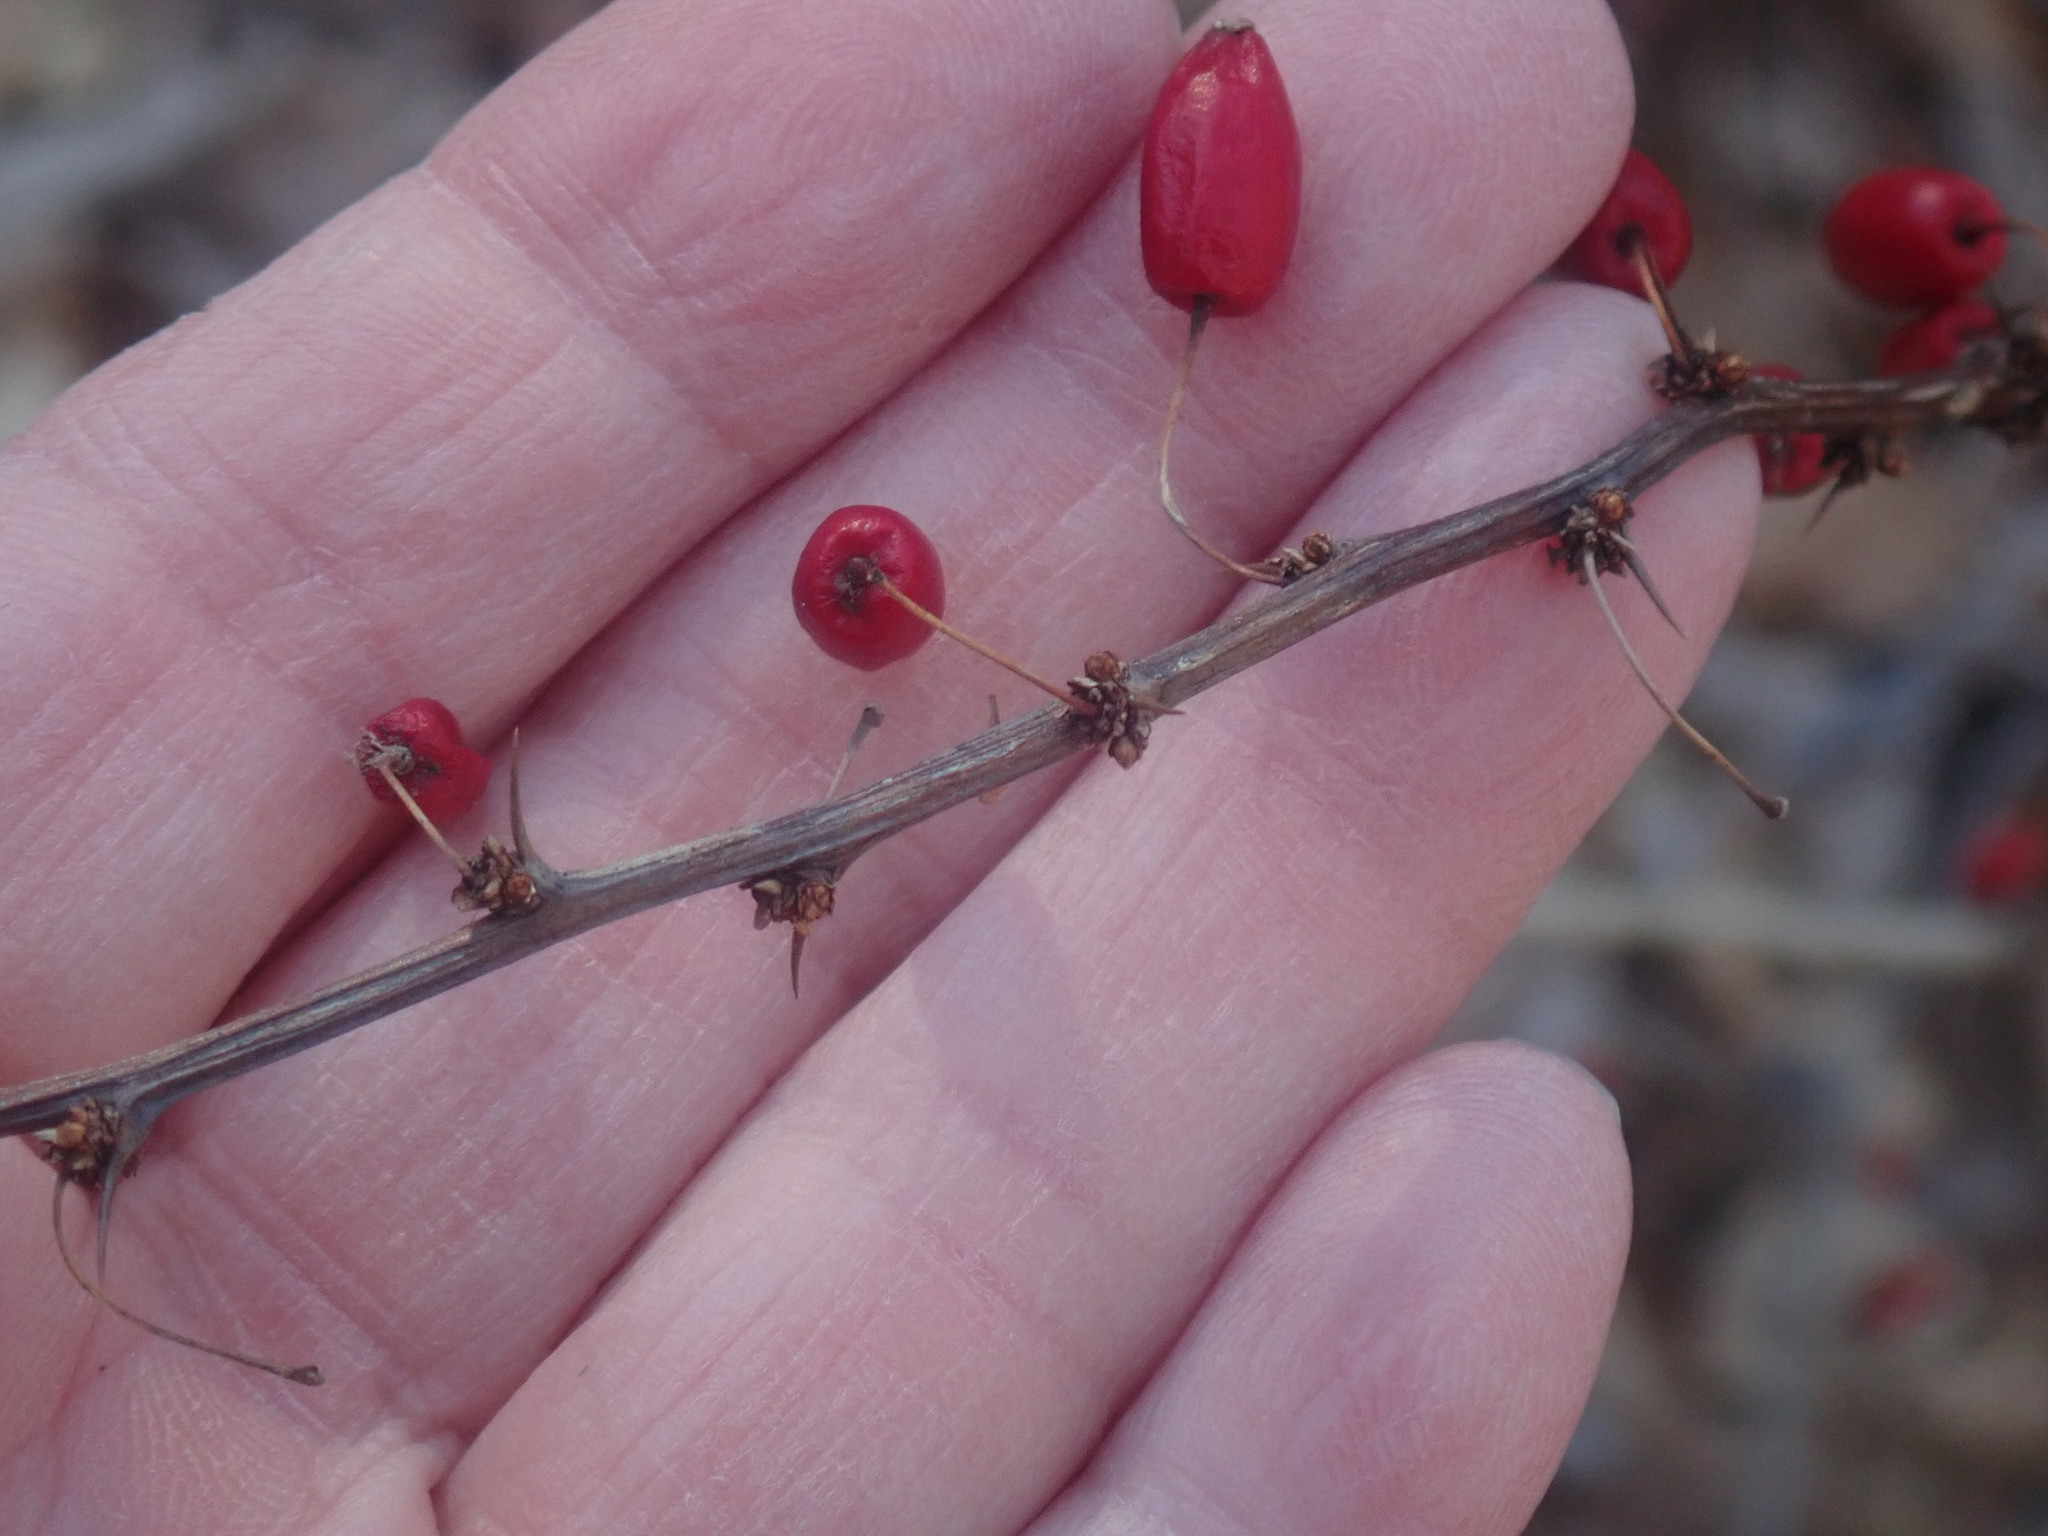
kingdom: Plantae
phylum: Tracheophyta
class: Magnoliopsida
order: Ranunculales
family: Berberidaceae
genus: Berberis
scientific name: Berberis thunbergii
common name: Japanese barberry
